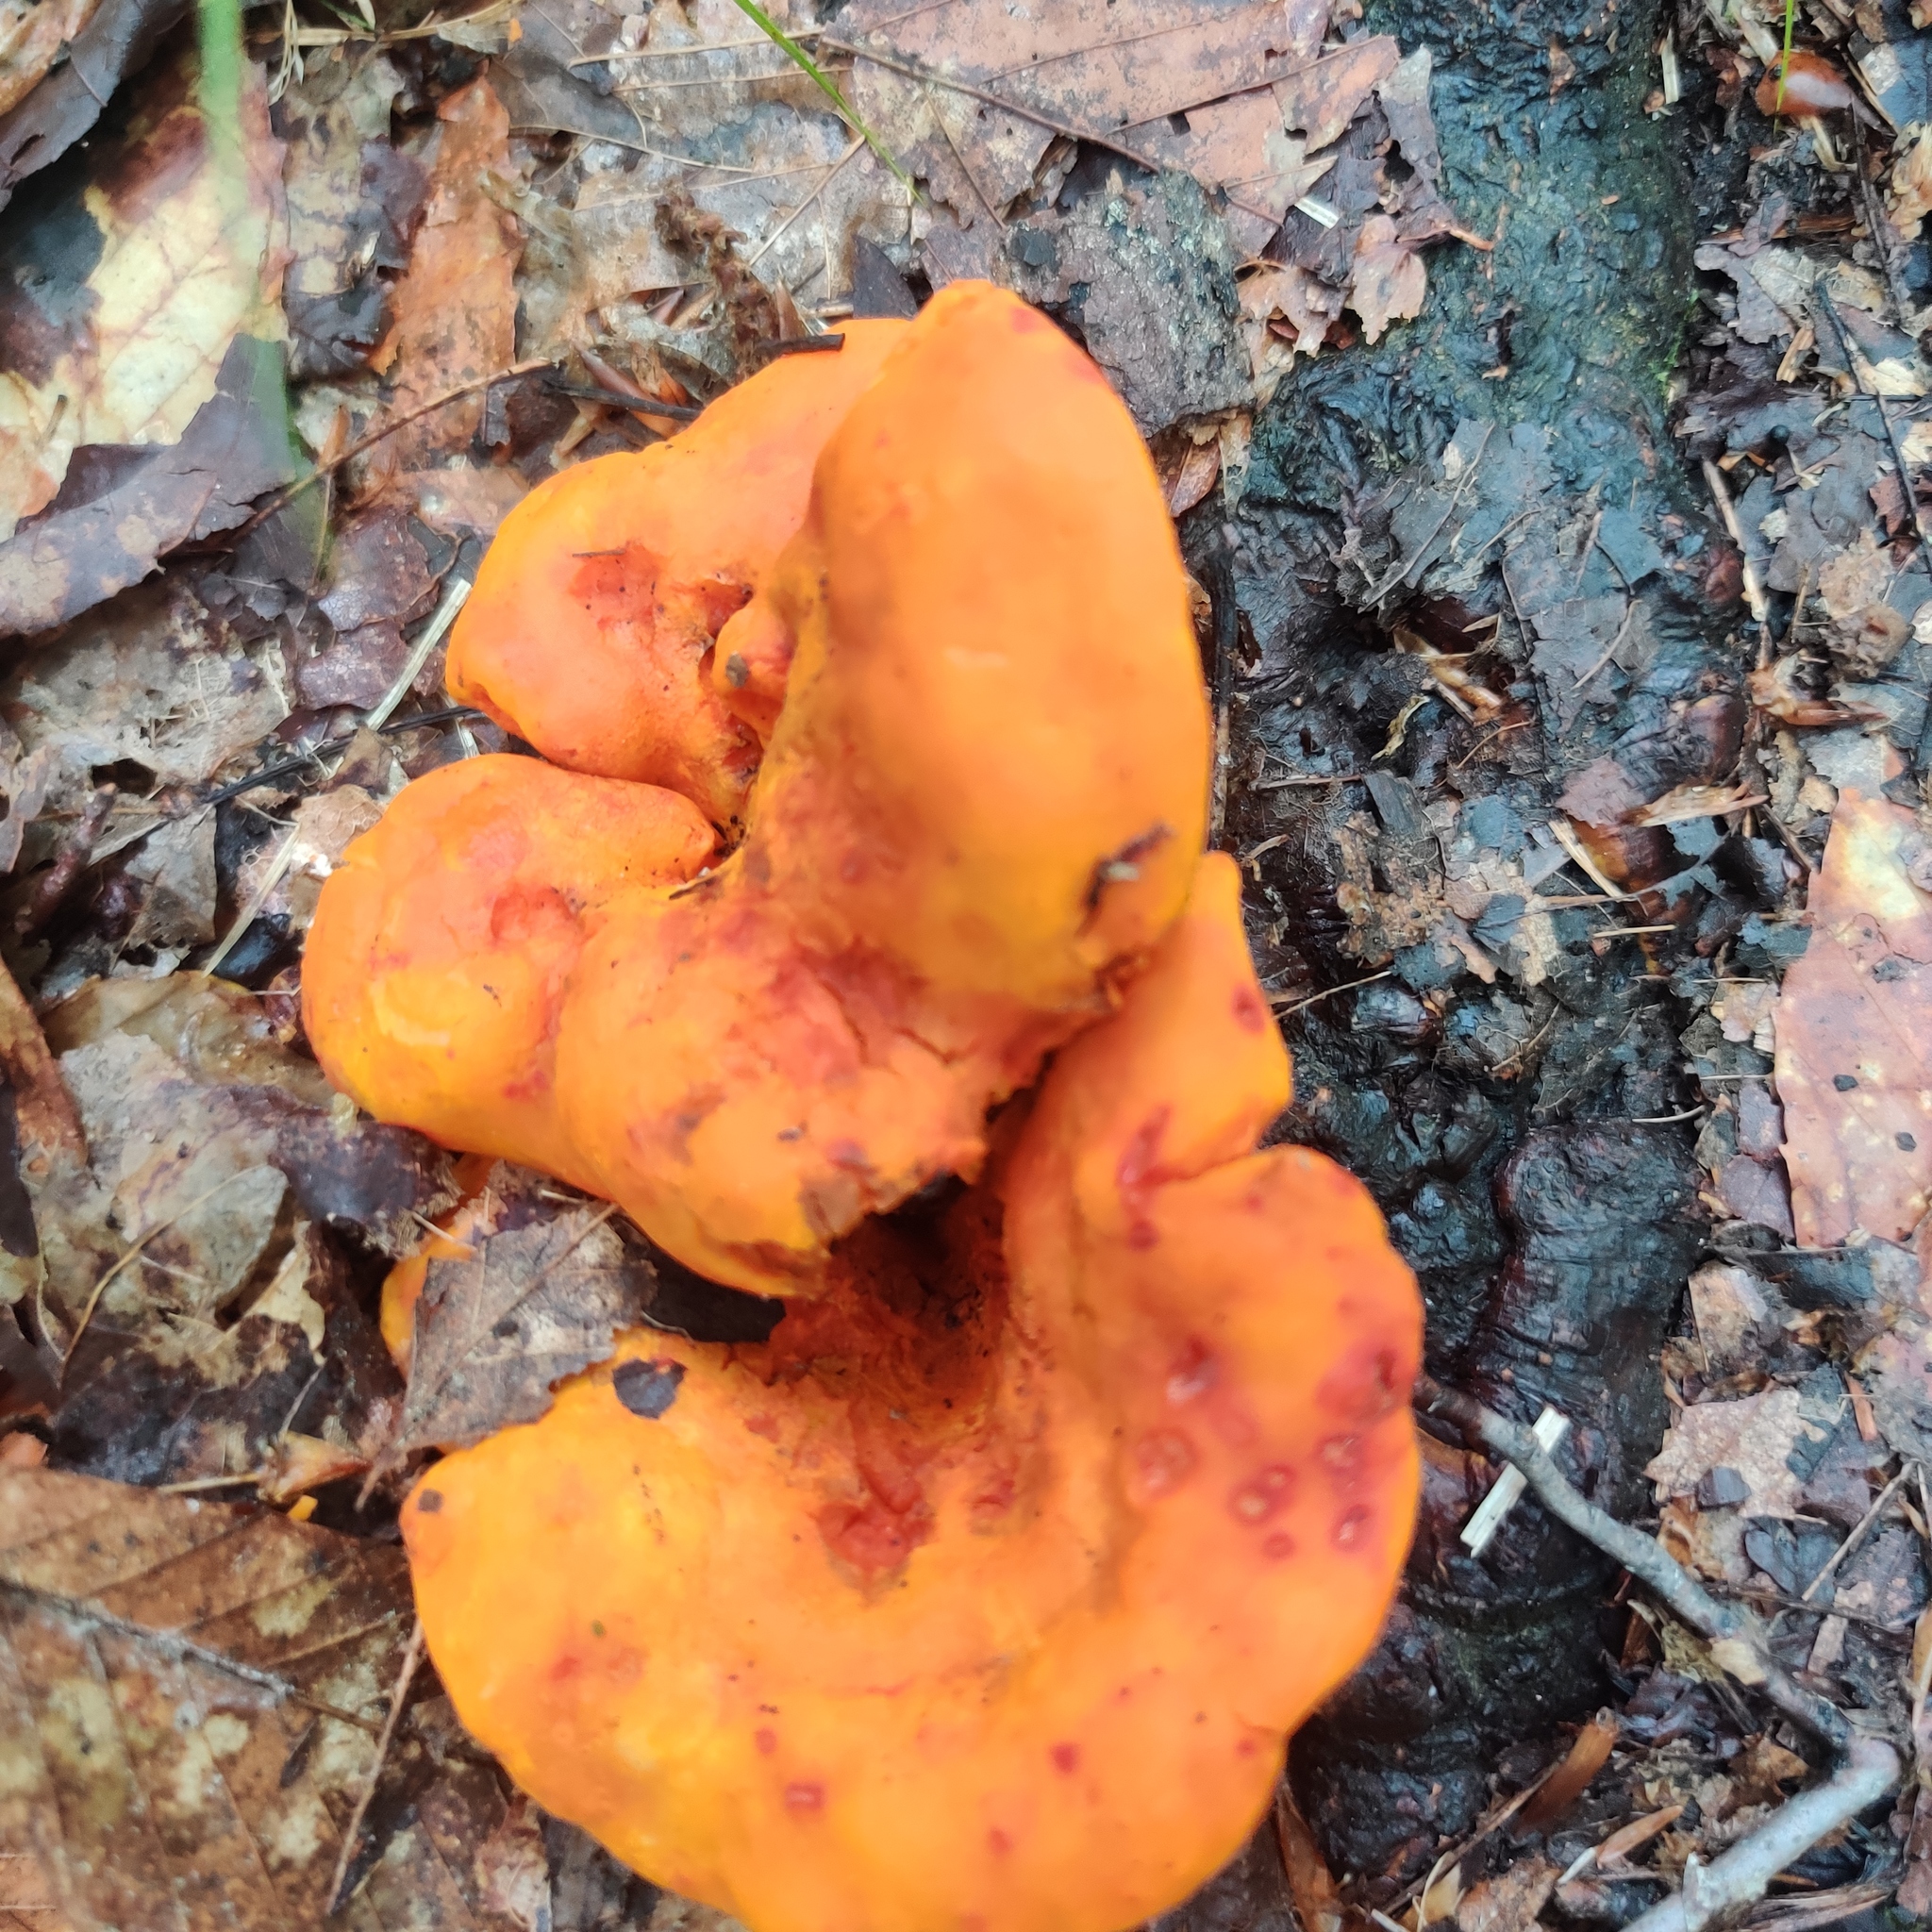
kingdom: Fungi
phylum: Ascomycota
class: Sordariomycetes
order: Hypocreales
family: Hypocreaceae
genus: Hypomyces
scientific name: Hypomyces lactifluorum
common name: Lobster mushroom
